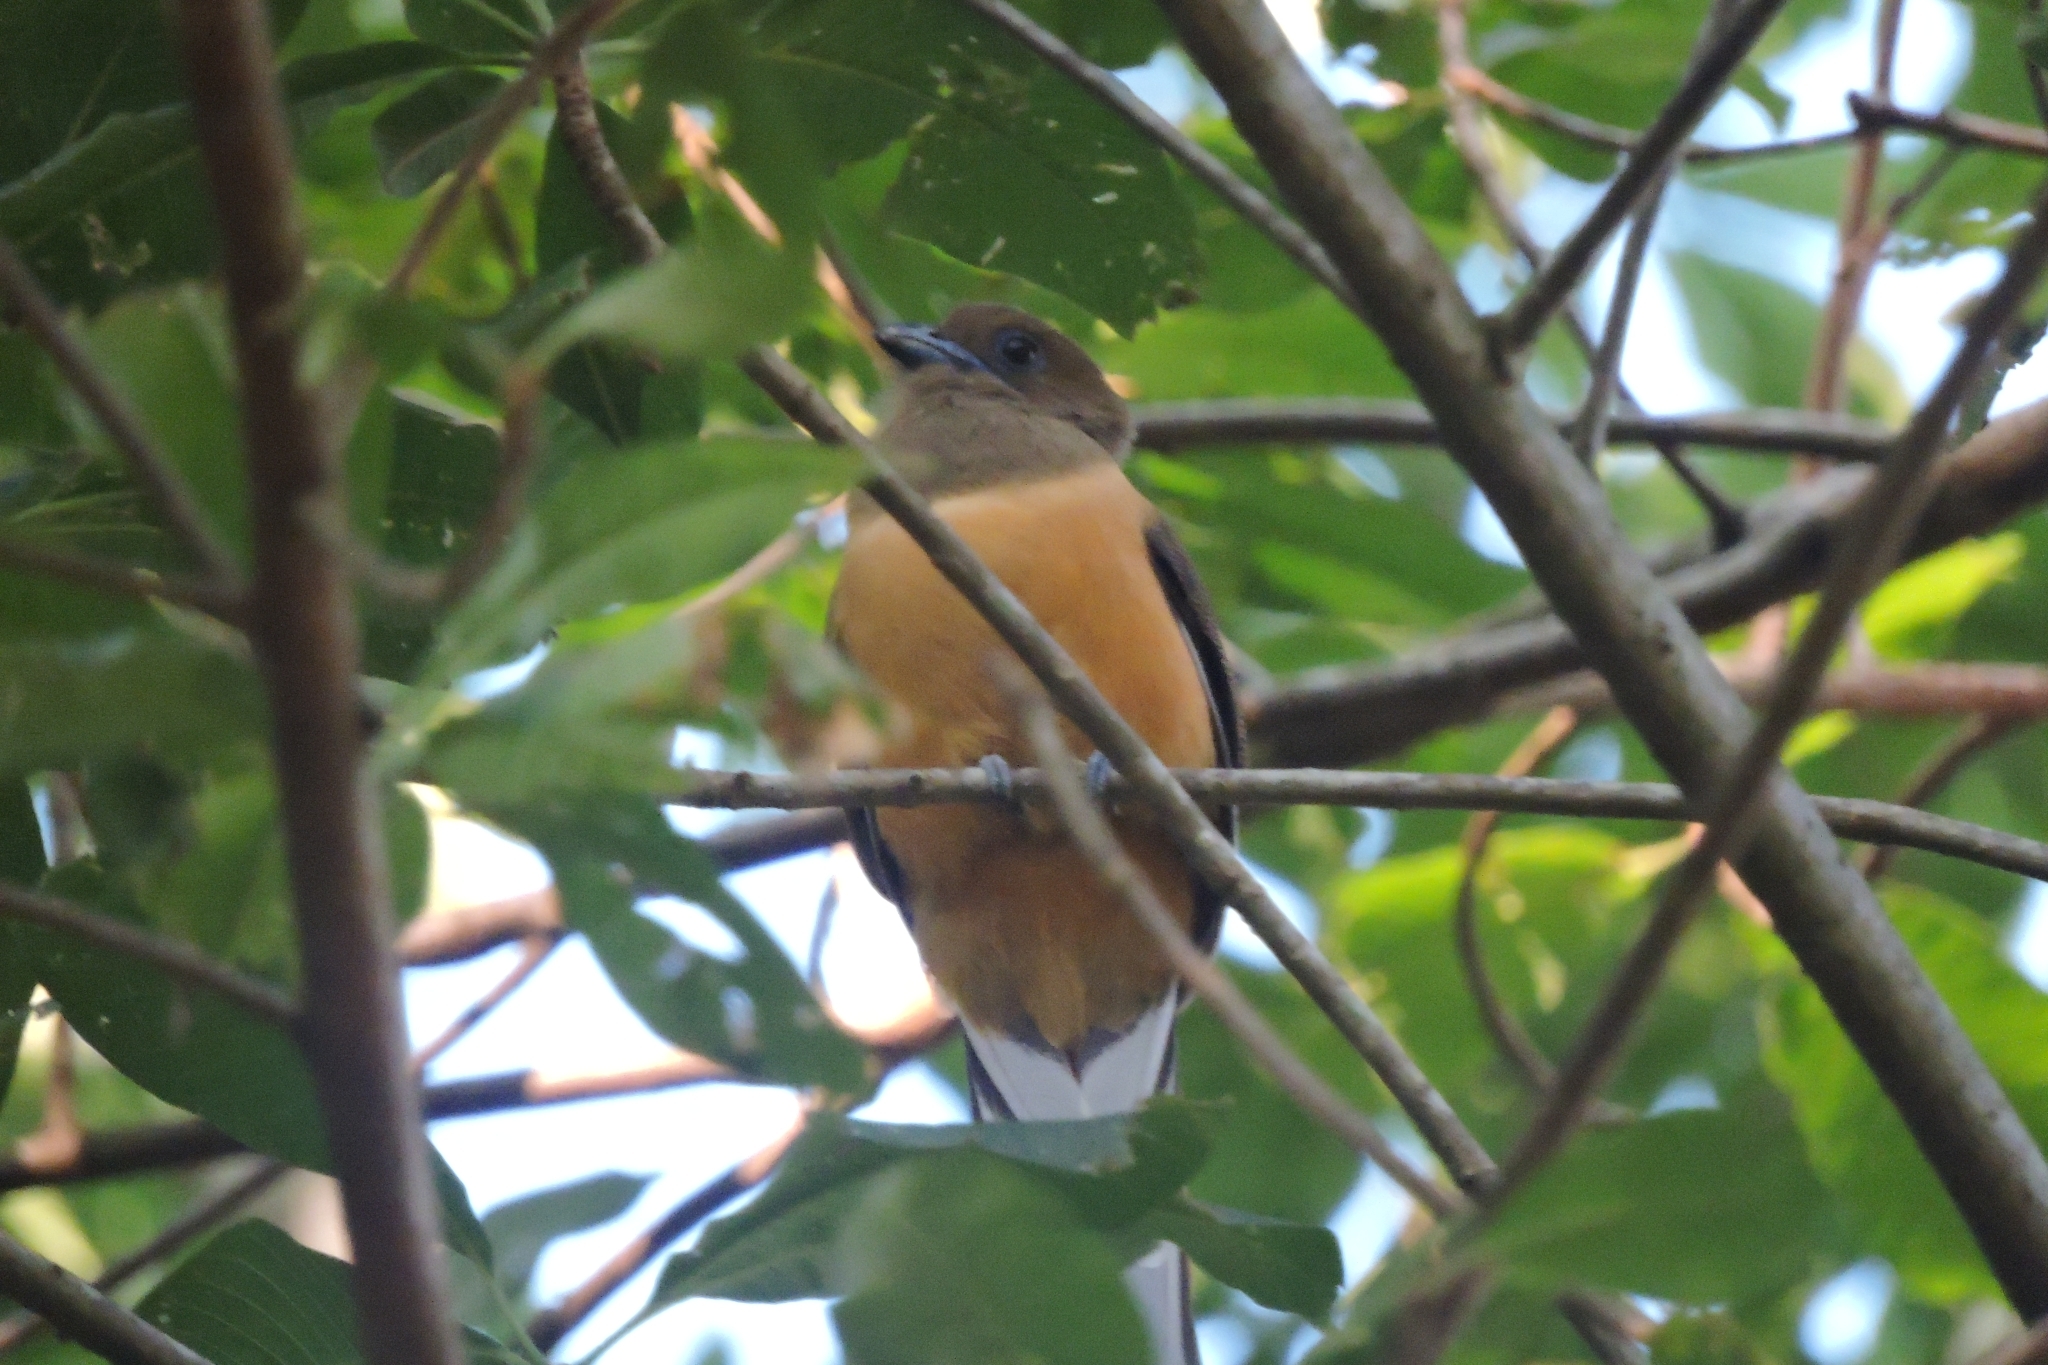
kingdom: Animalia
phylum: Chordata
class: Aves
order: Trogoniformes
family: Trogonidae
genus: Harpactes
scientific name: Harpactes fasciatus
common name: Malabar trogon
